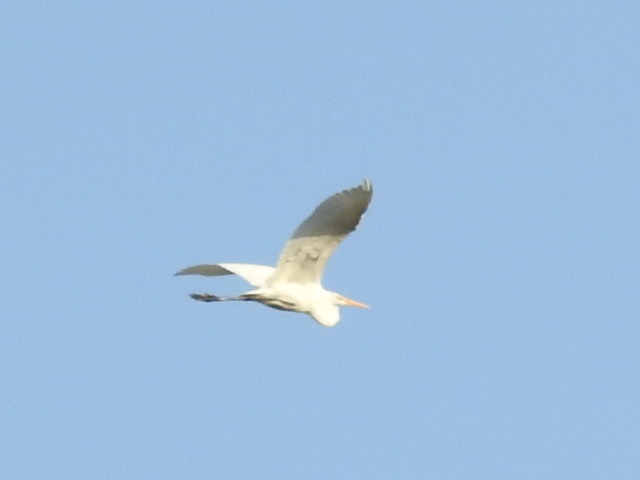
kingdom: Animalia
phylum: Chordata
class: Aves
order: Pelecaniformes
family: Ardeidae
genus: Ardea
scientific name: Ardea alba
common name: Great egret
